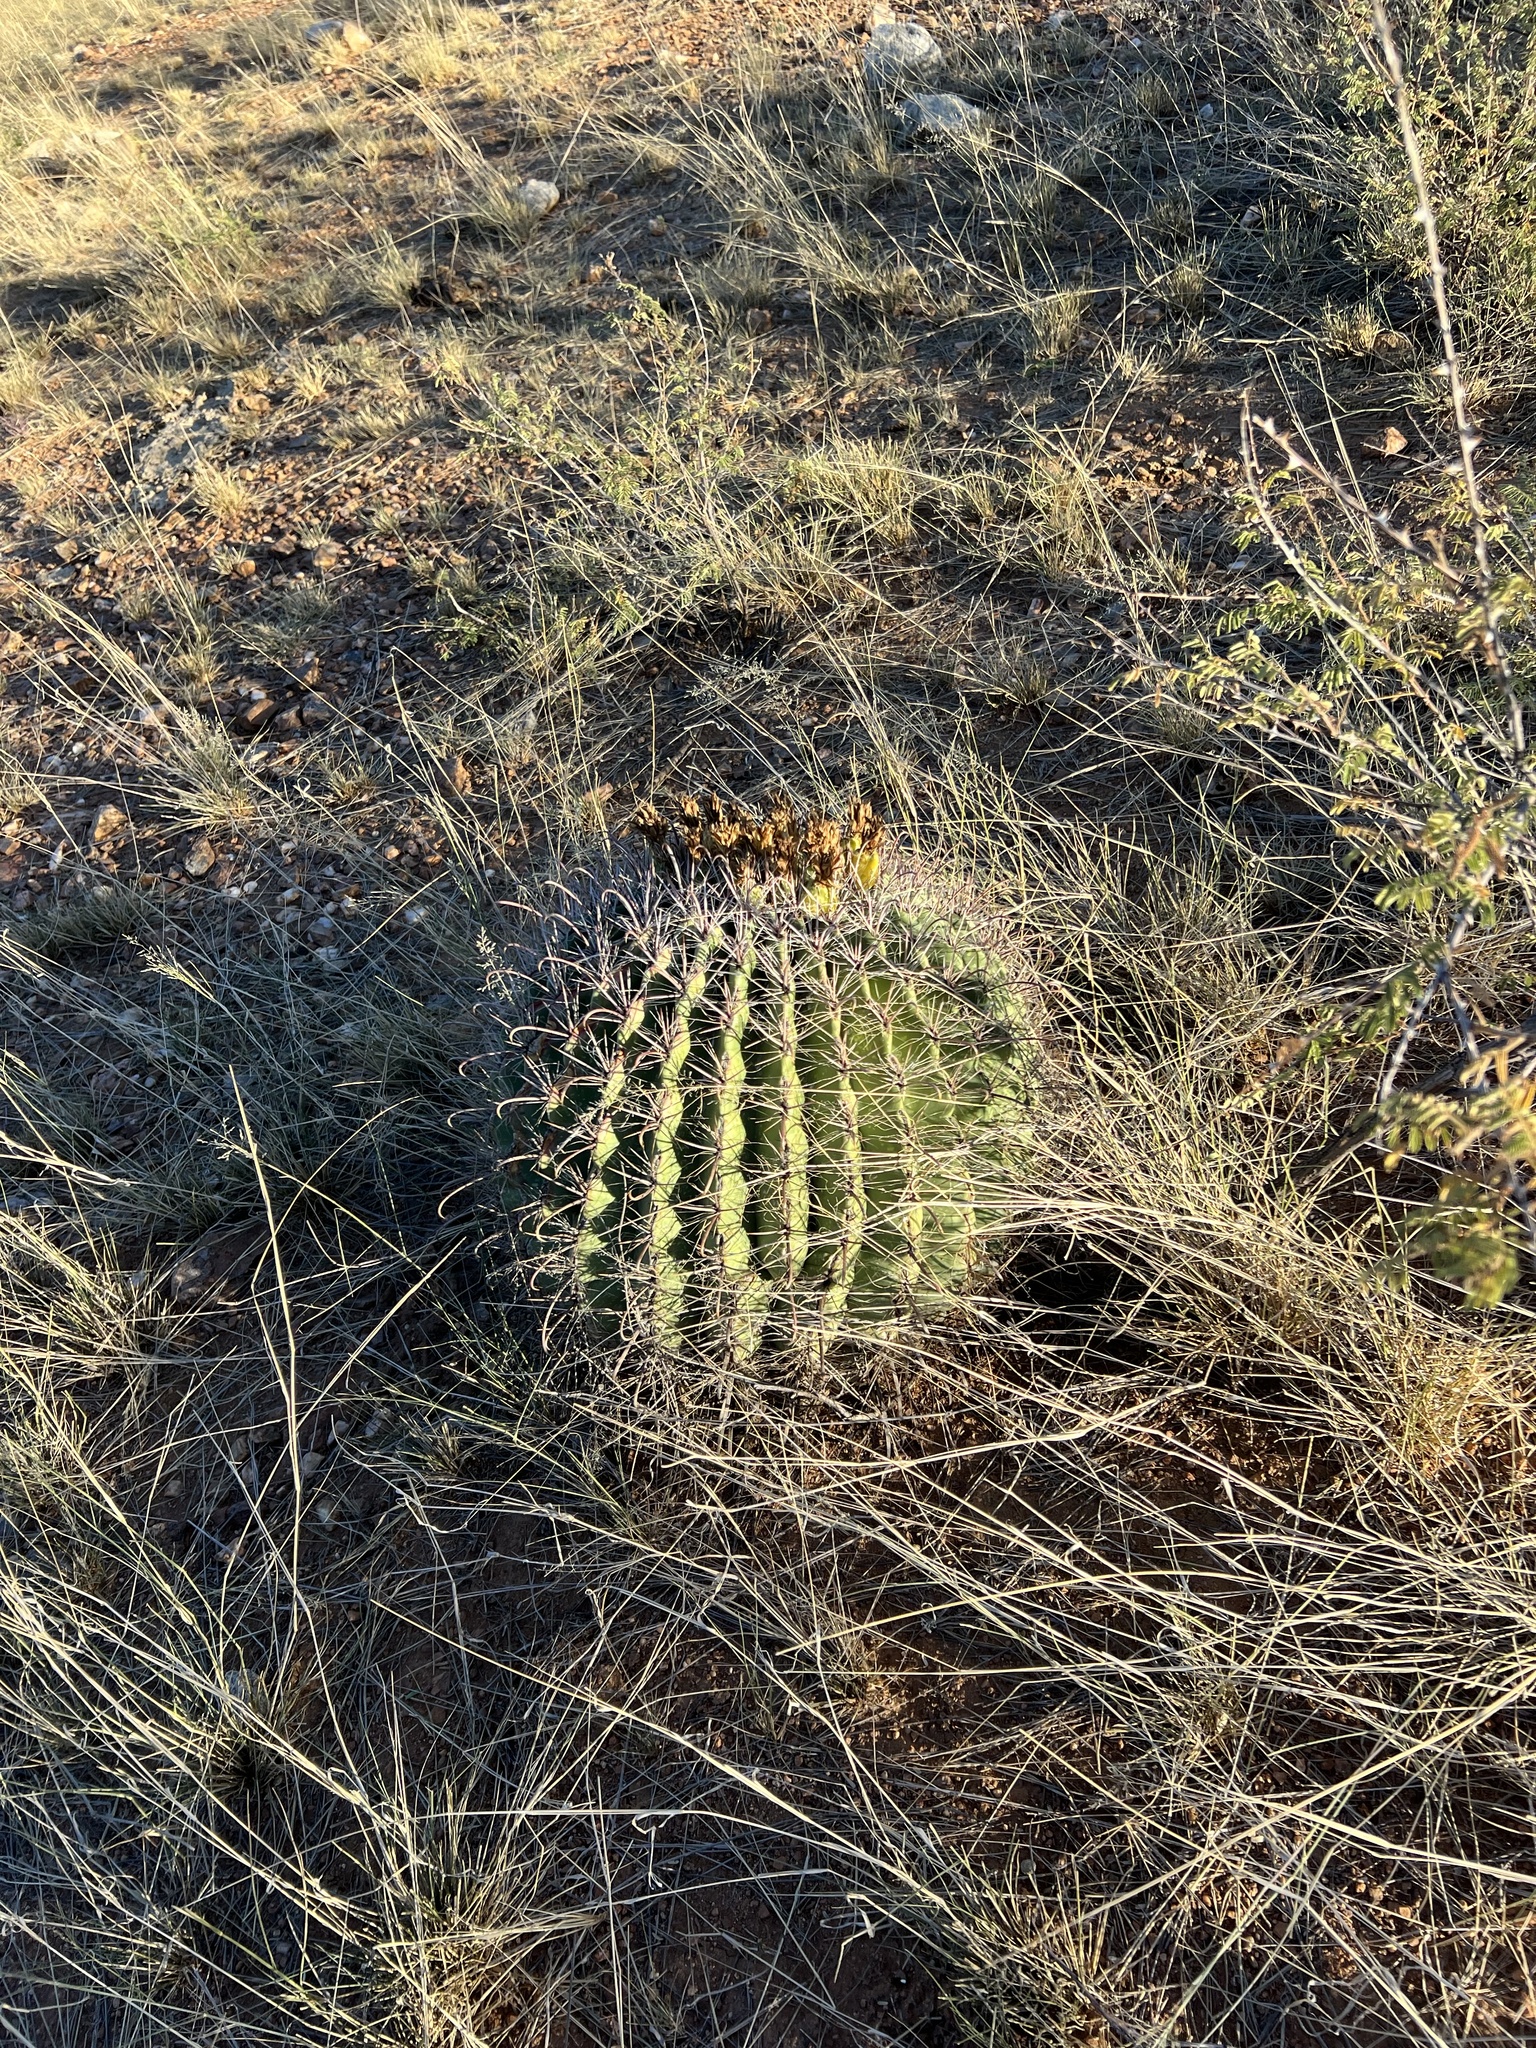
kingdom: Plantae
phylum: Tracheophyta
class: Magnoliopsida
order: Caryophyllales
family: Cactaceae
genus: Ferocactus
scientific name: Ferocactus wislizeni
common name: Candy barrel cactus
